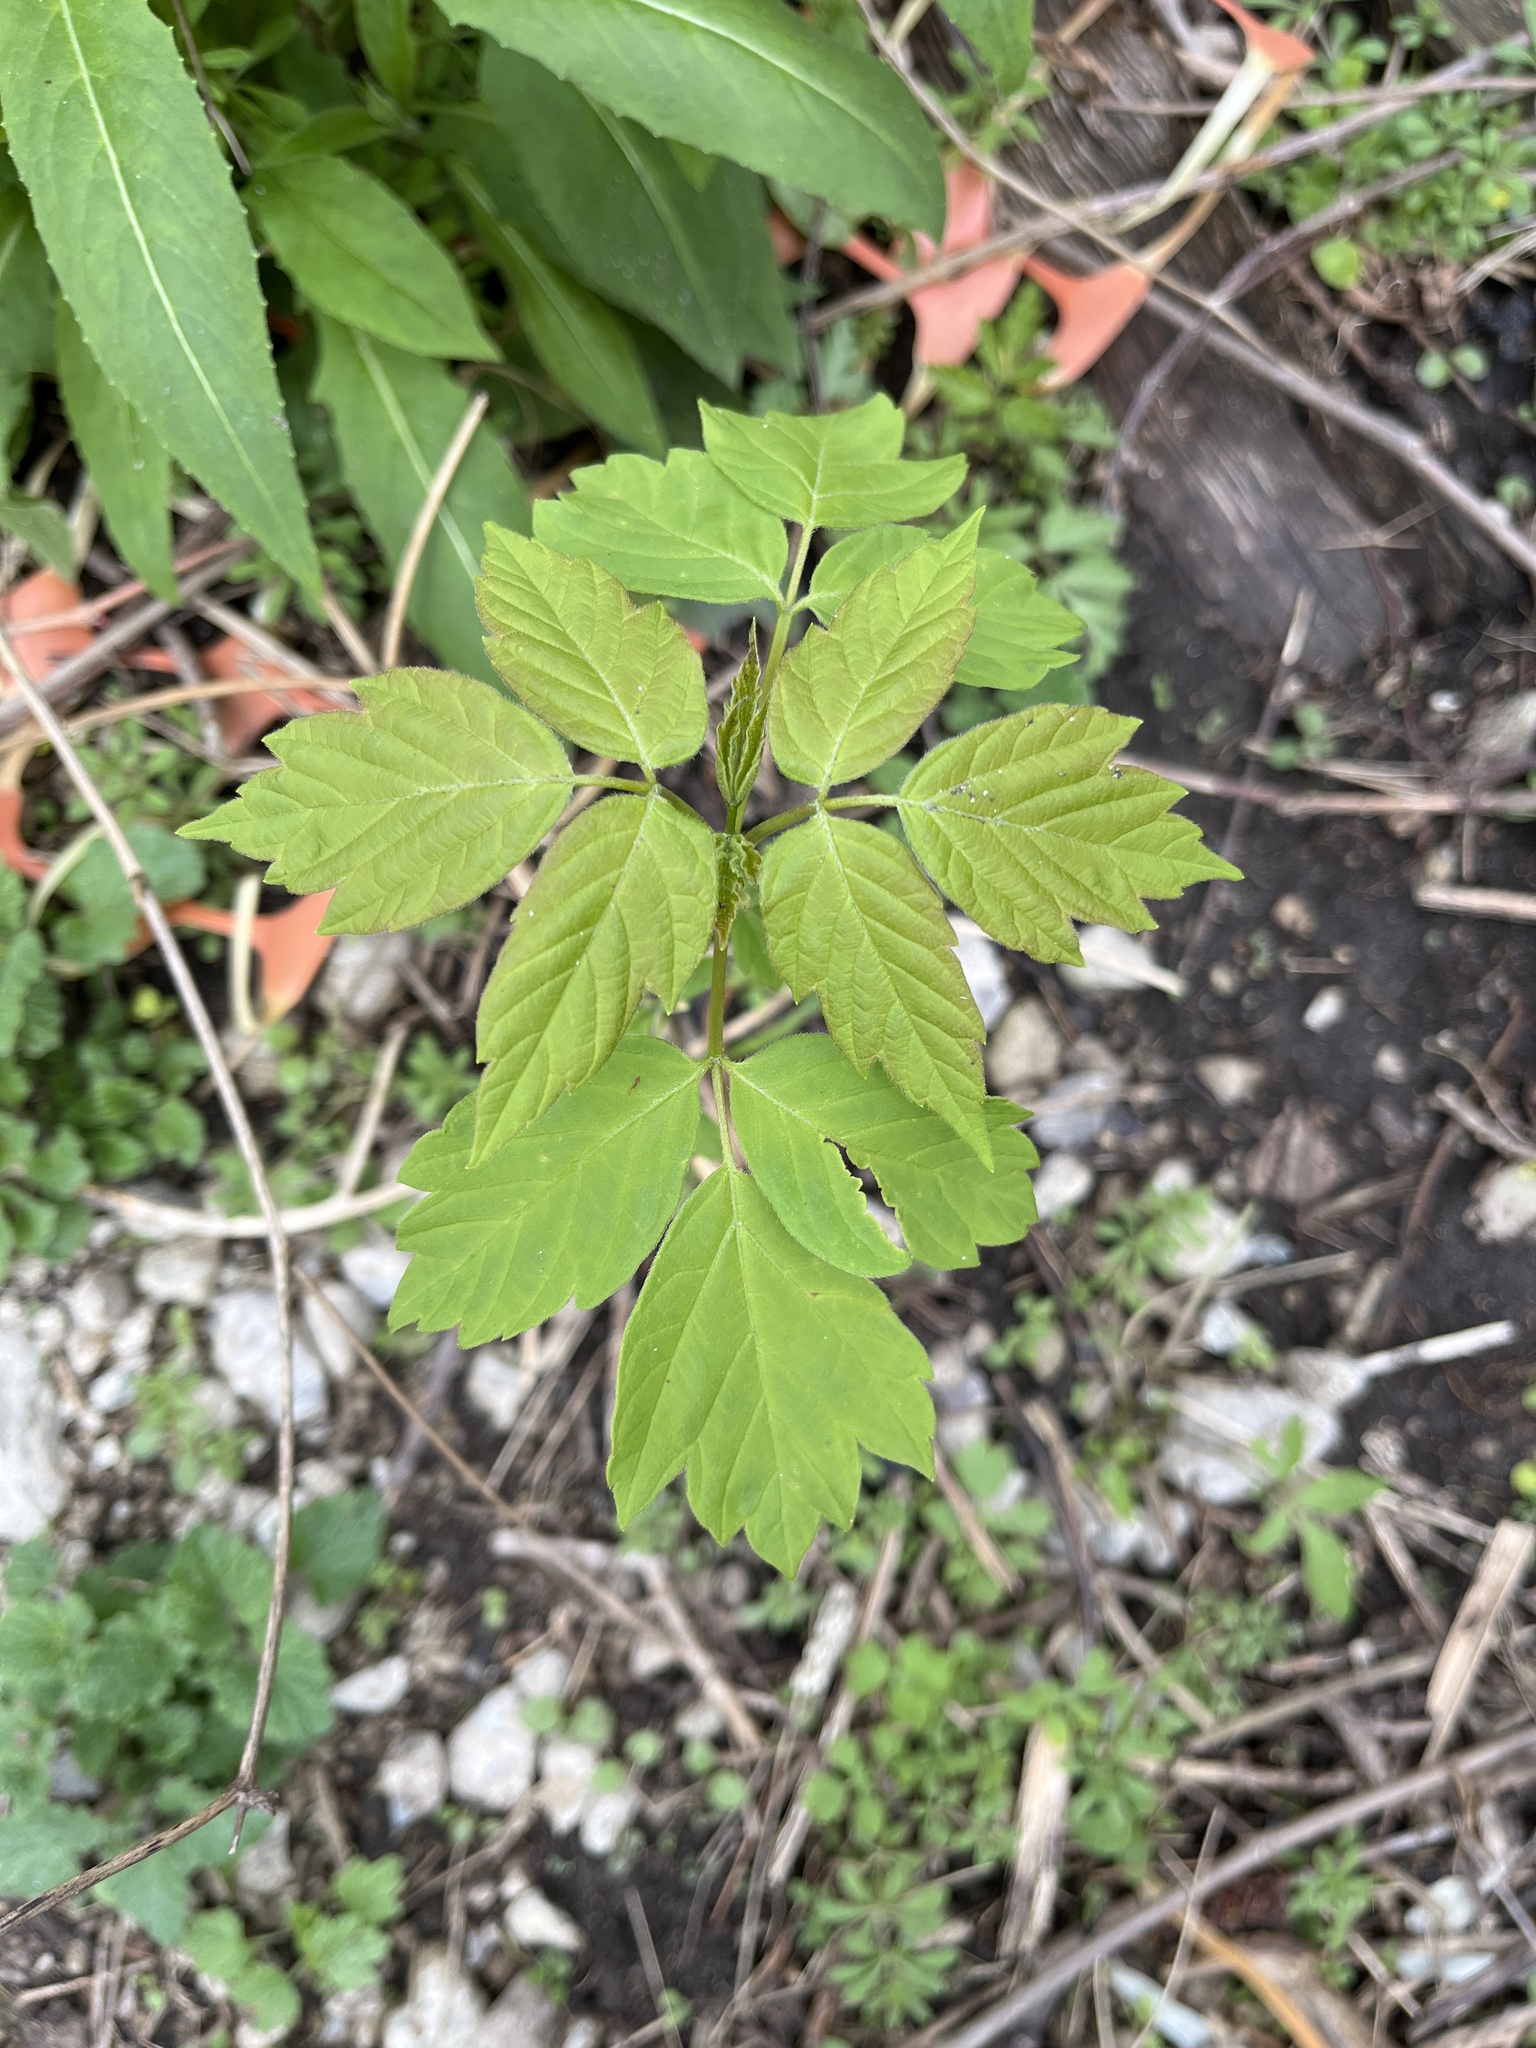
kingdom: Plantae
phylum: Tracheophyta
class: Magnoliopsida
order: Sapindales
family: Sapindaceae
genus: Acer
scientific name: Acer negundo
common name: Ashleaf maple
